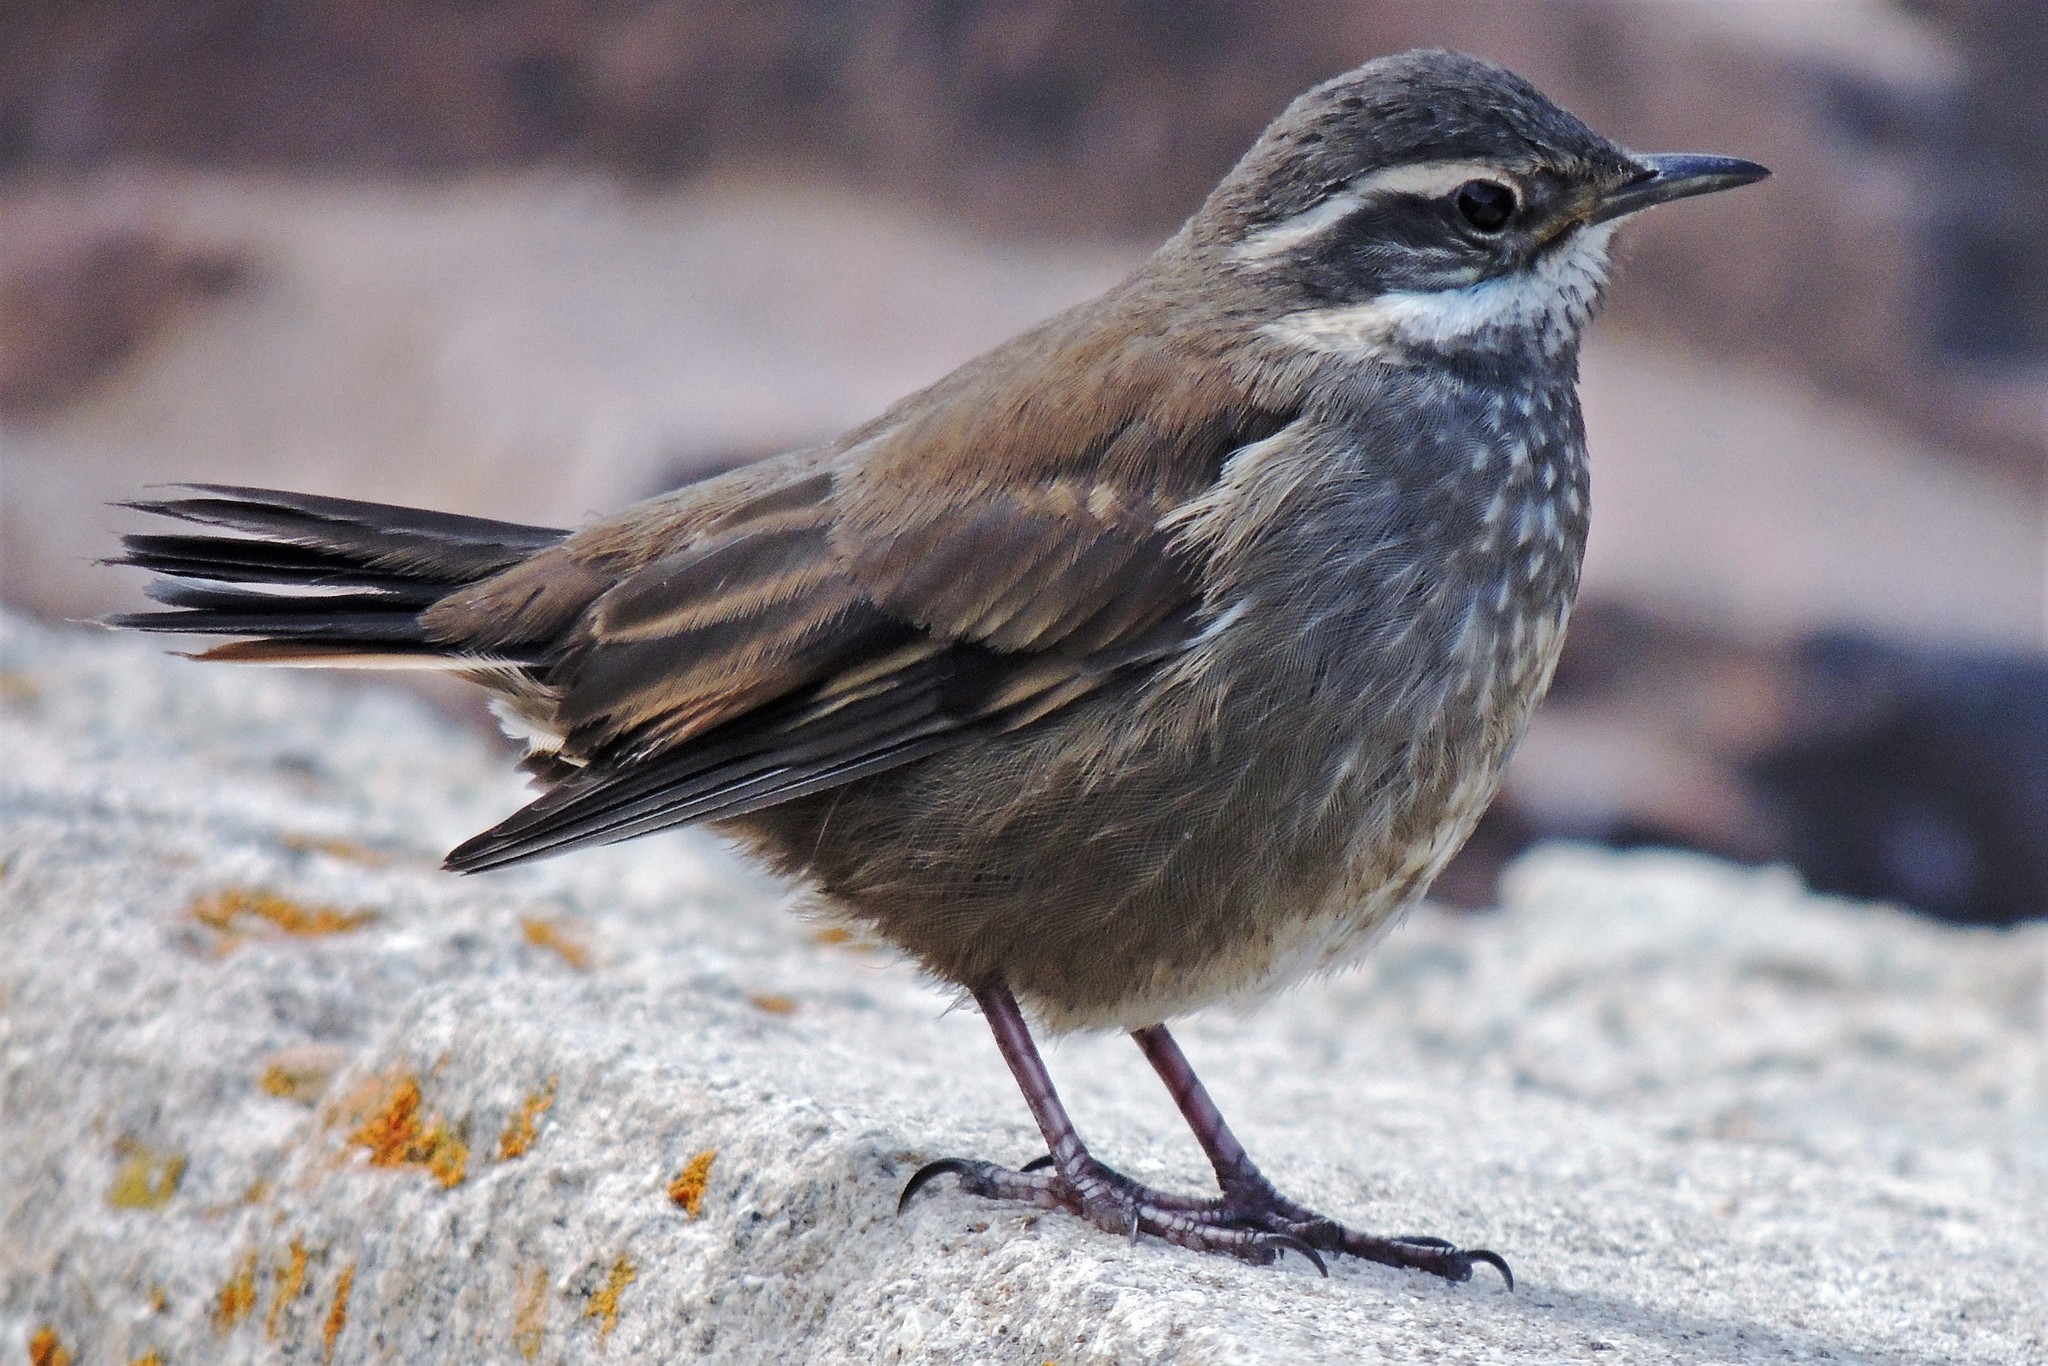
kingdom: Animalia
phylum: Chordata
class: Aves
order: Passeriformes
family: Furnariidae
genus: Cinclodes
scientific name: Cinclodes oustaleti
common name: Grey-flanked cinclodes
